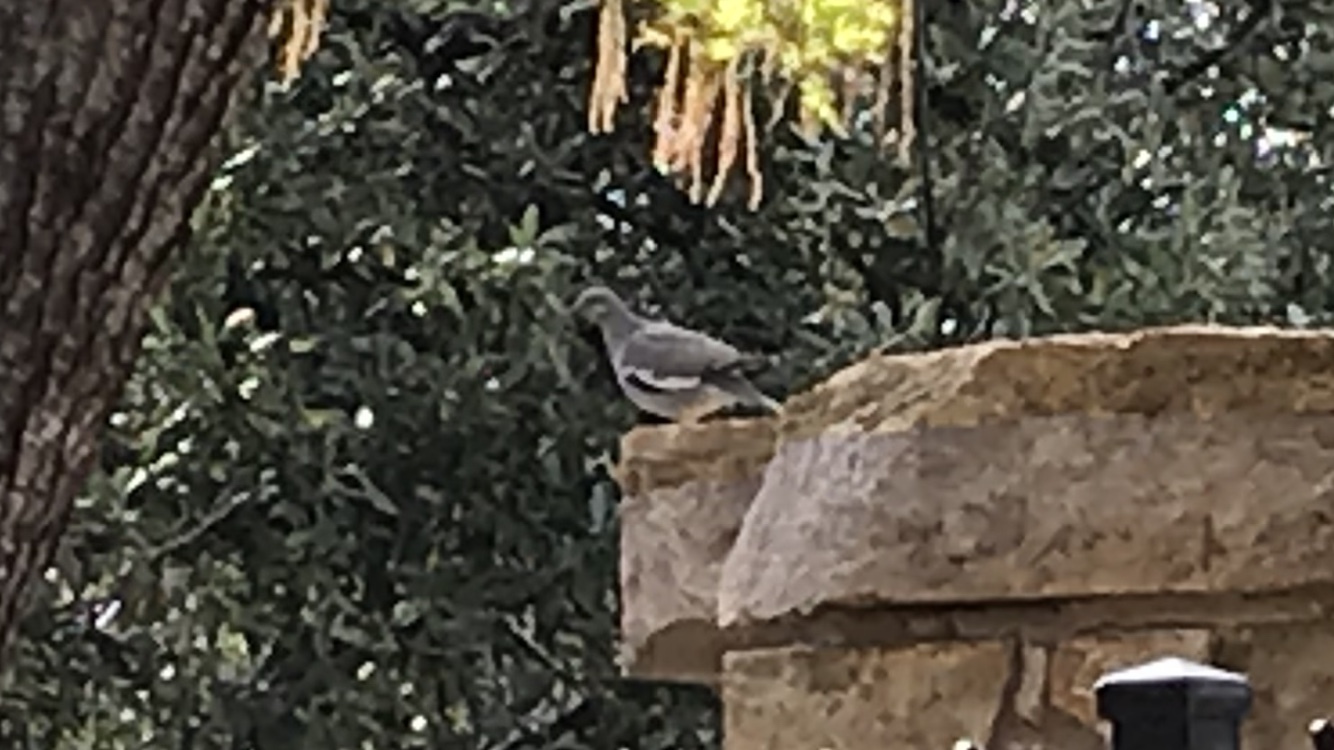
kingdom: Animalia
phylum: Chordata
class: Aves
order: Columbiformes
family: Columbidae
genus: Zenaida
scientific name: Zenaida asiatica
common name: White-winged dove
